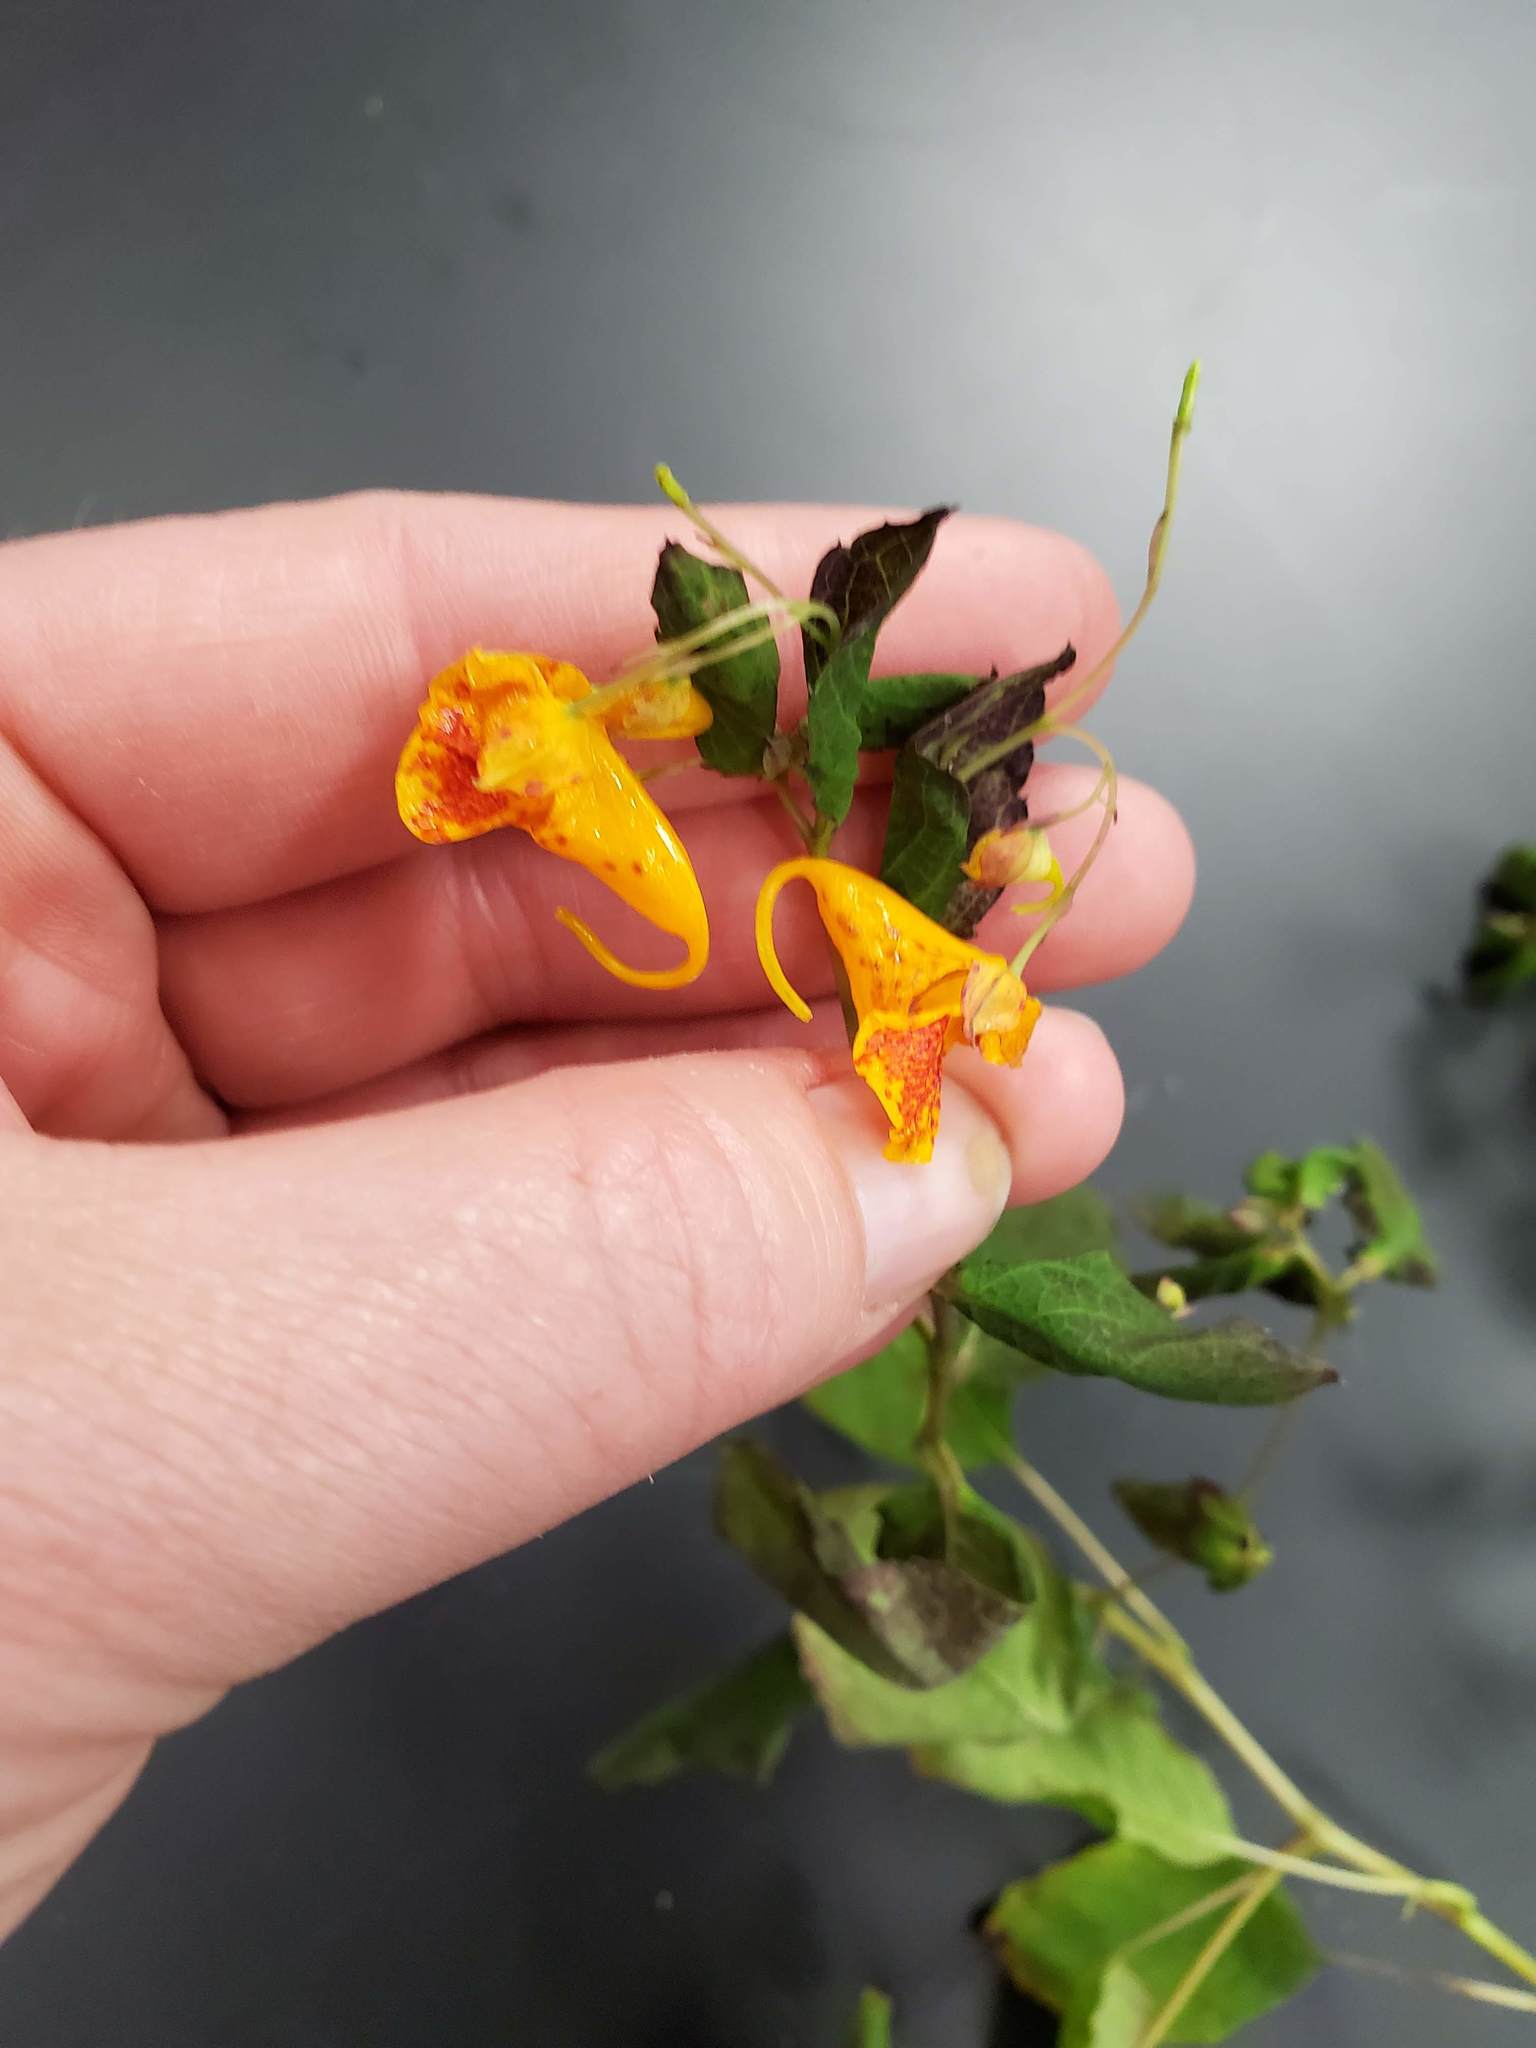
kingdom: Plantae
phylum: Tracheophyta
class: Magnoliopsida
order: Ericales
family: Balsaminaceae
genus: Impatiens
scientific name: Impatiens capensis
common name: Orange balsam
